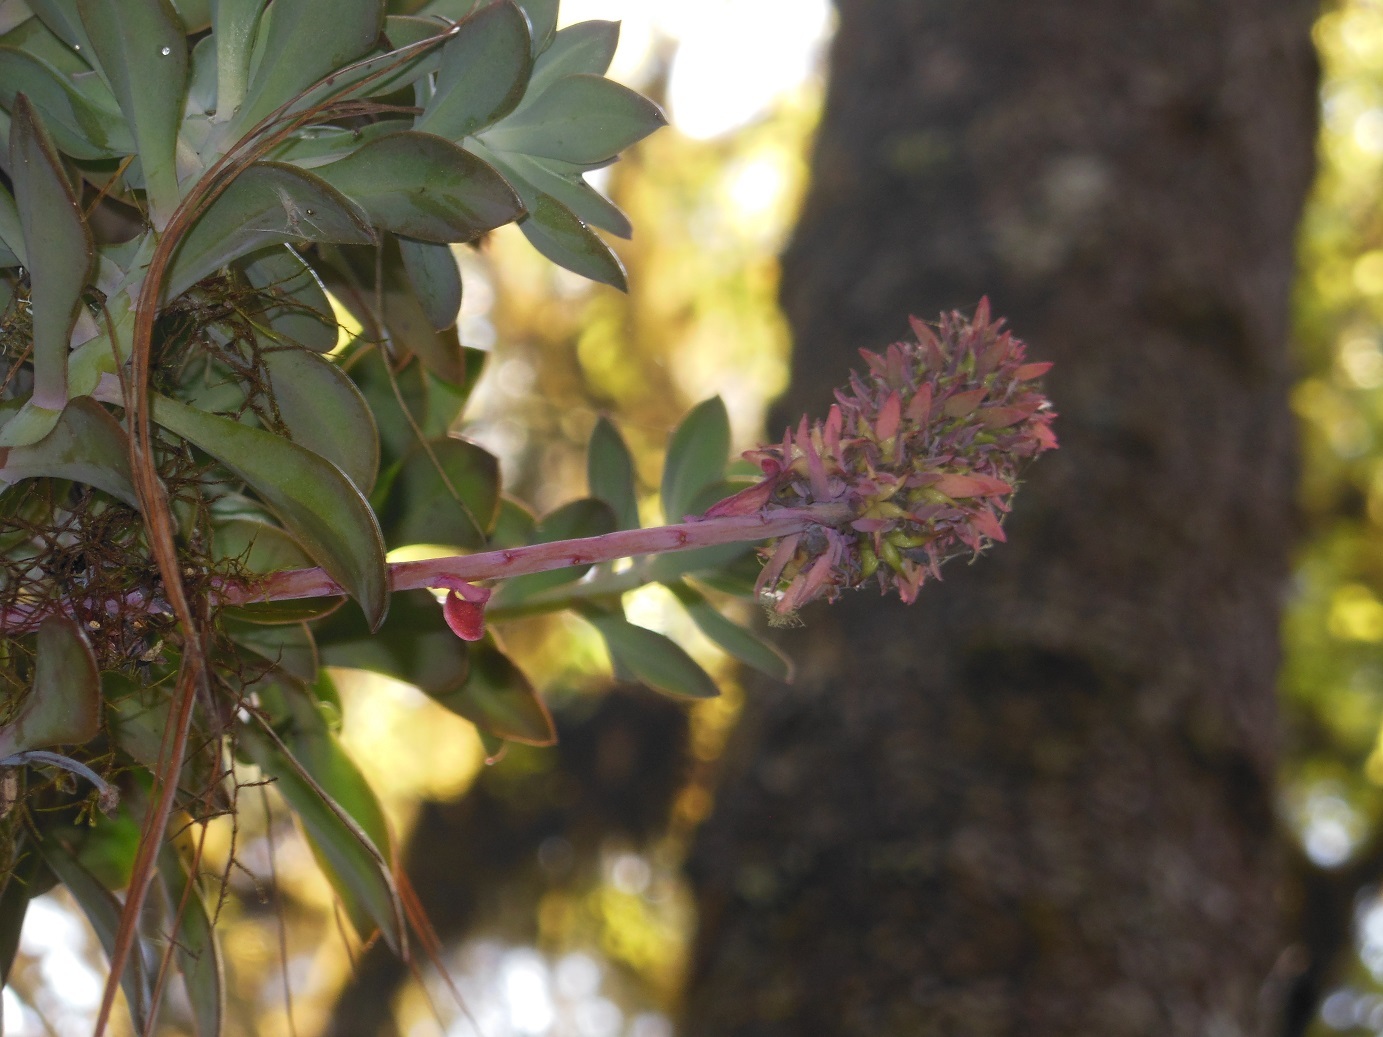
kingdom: Plantae
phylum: Tracheophyta
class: Magnoliopsida
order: Saxifragales
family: Crassulaceae
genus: Echeveria
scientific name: Echeveria rosea
